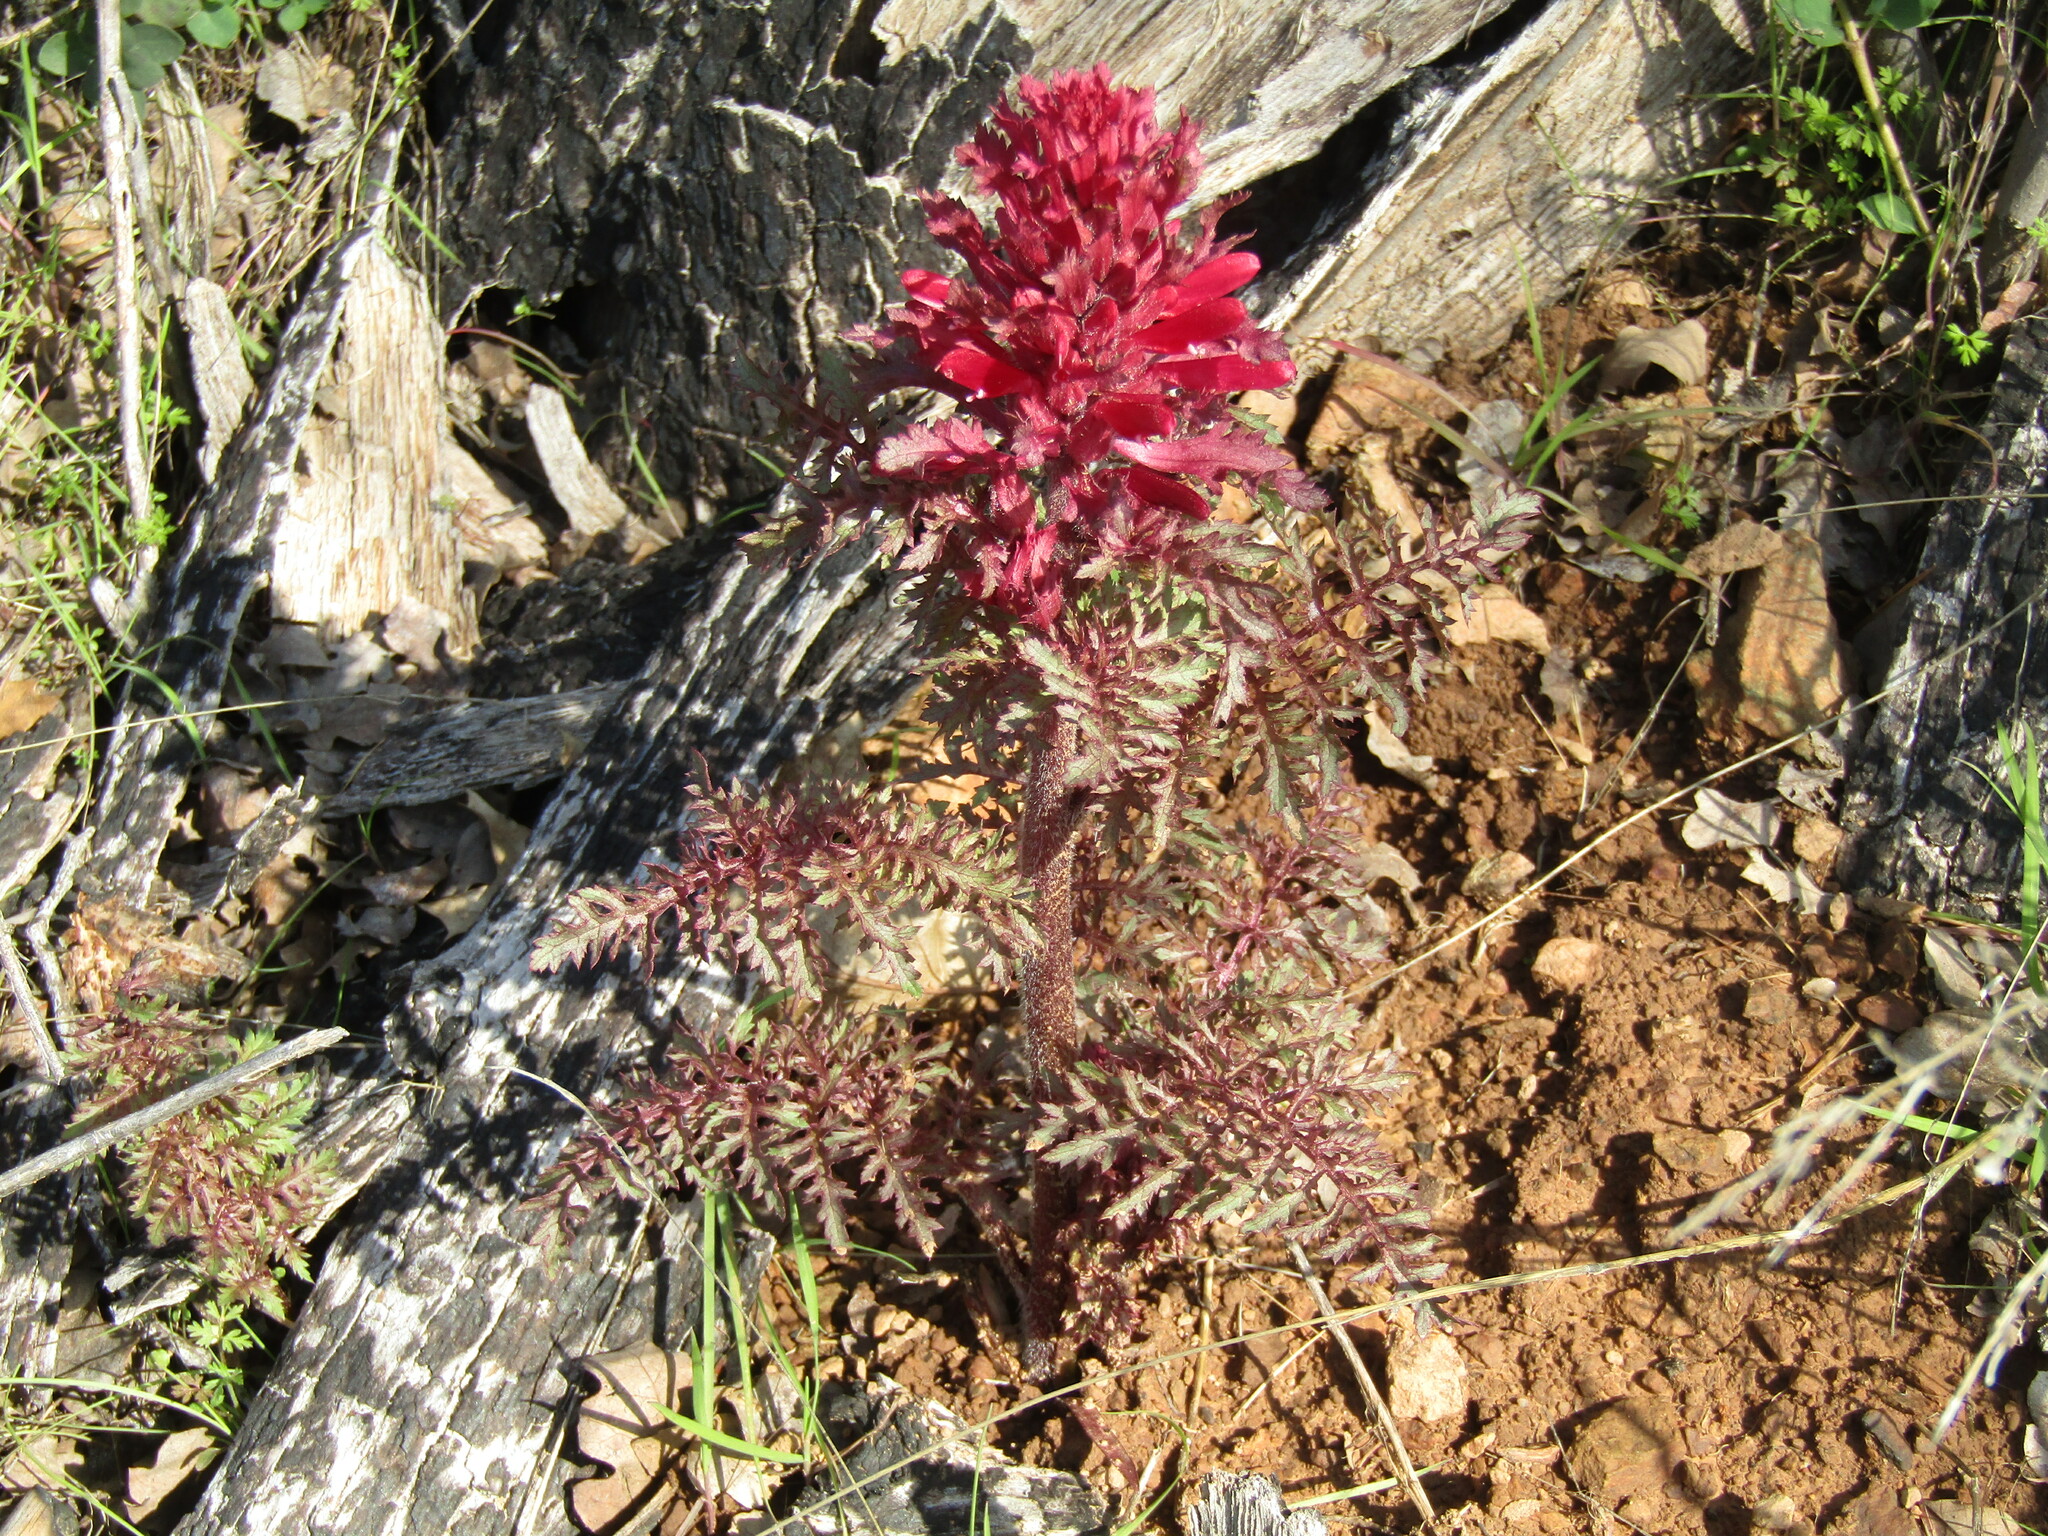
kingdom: Plantae
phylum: Tracheophyta
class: Magnoliopsida
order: Lamiales
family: Orobanchaceae
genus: Pedicularis
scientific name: Pedicularis densiflora
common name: Indian warrior
